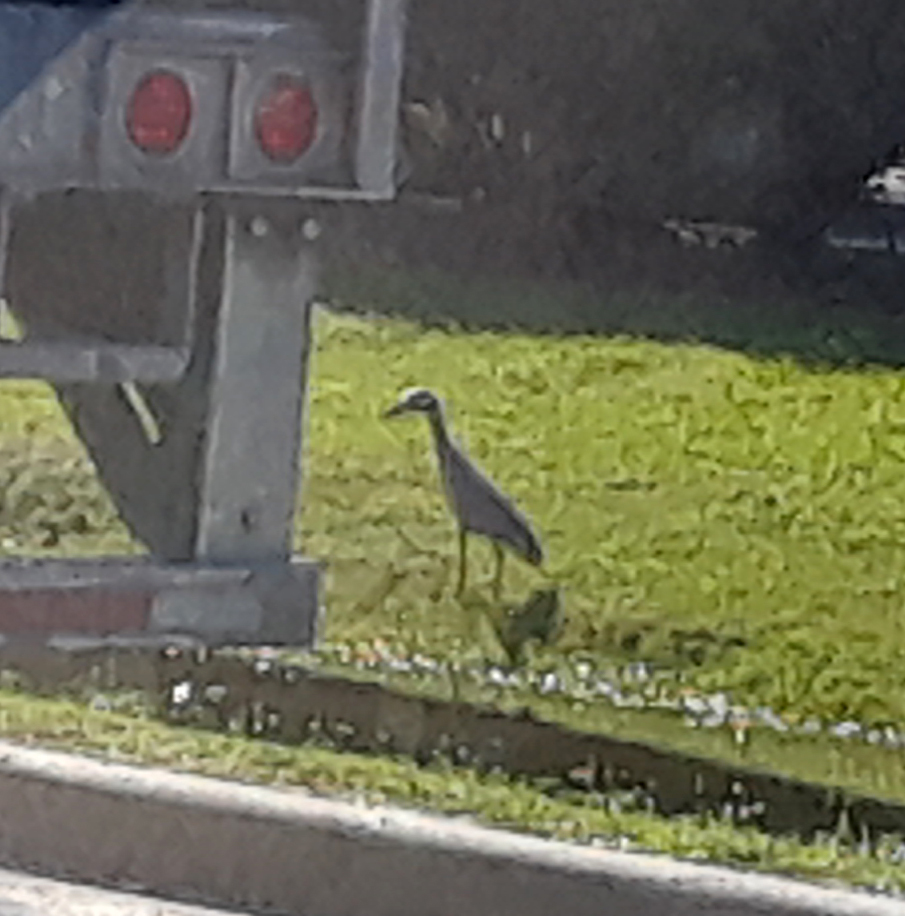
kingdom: Animalia
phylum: Chordata
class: Aves
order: Pelecaniformes
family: Ardeidae
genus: Nyctanassa
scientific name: Nyctanassa violacea
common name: Yellow-crowned night heron
